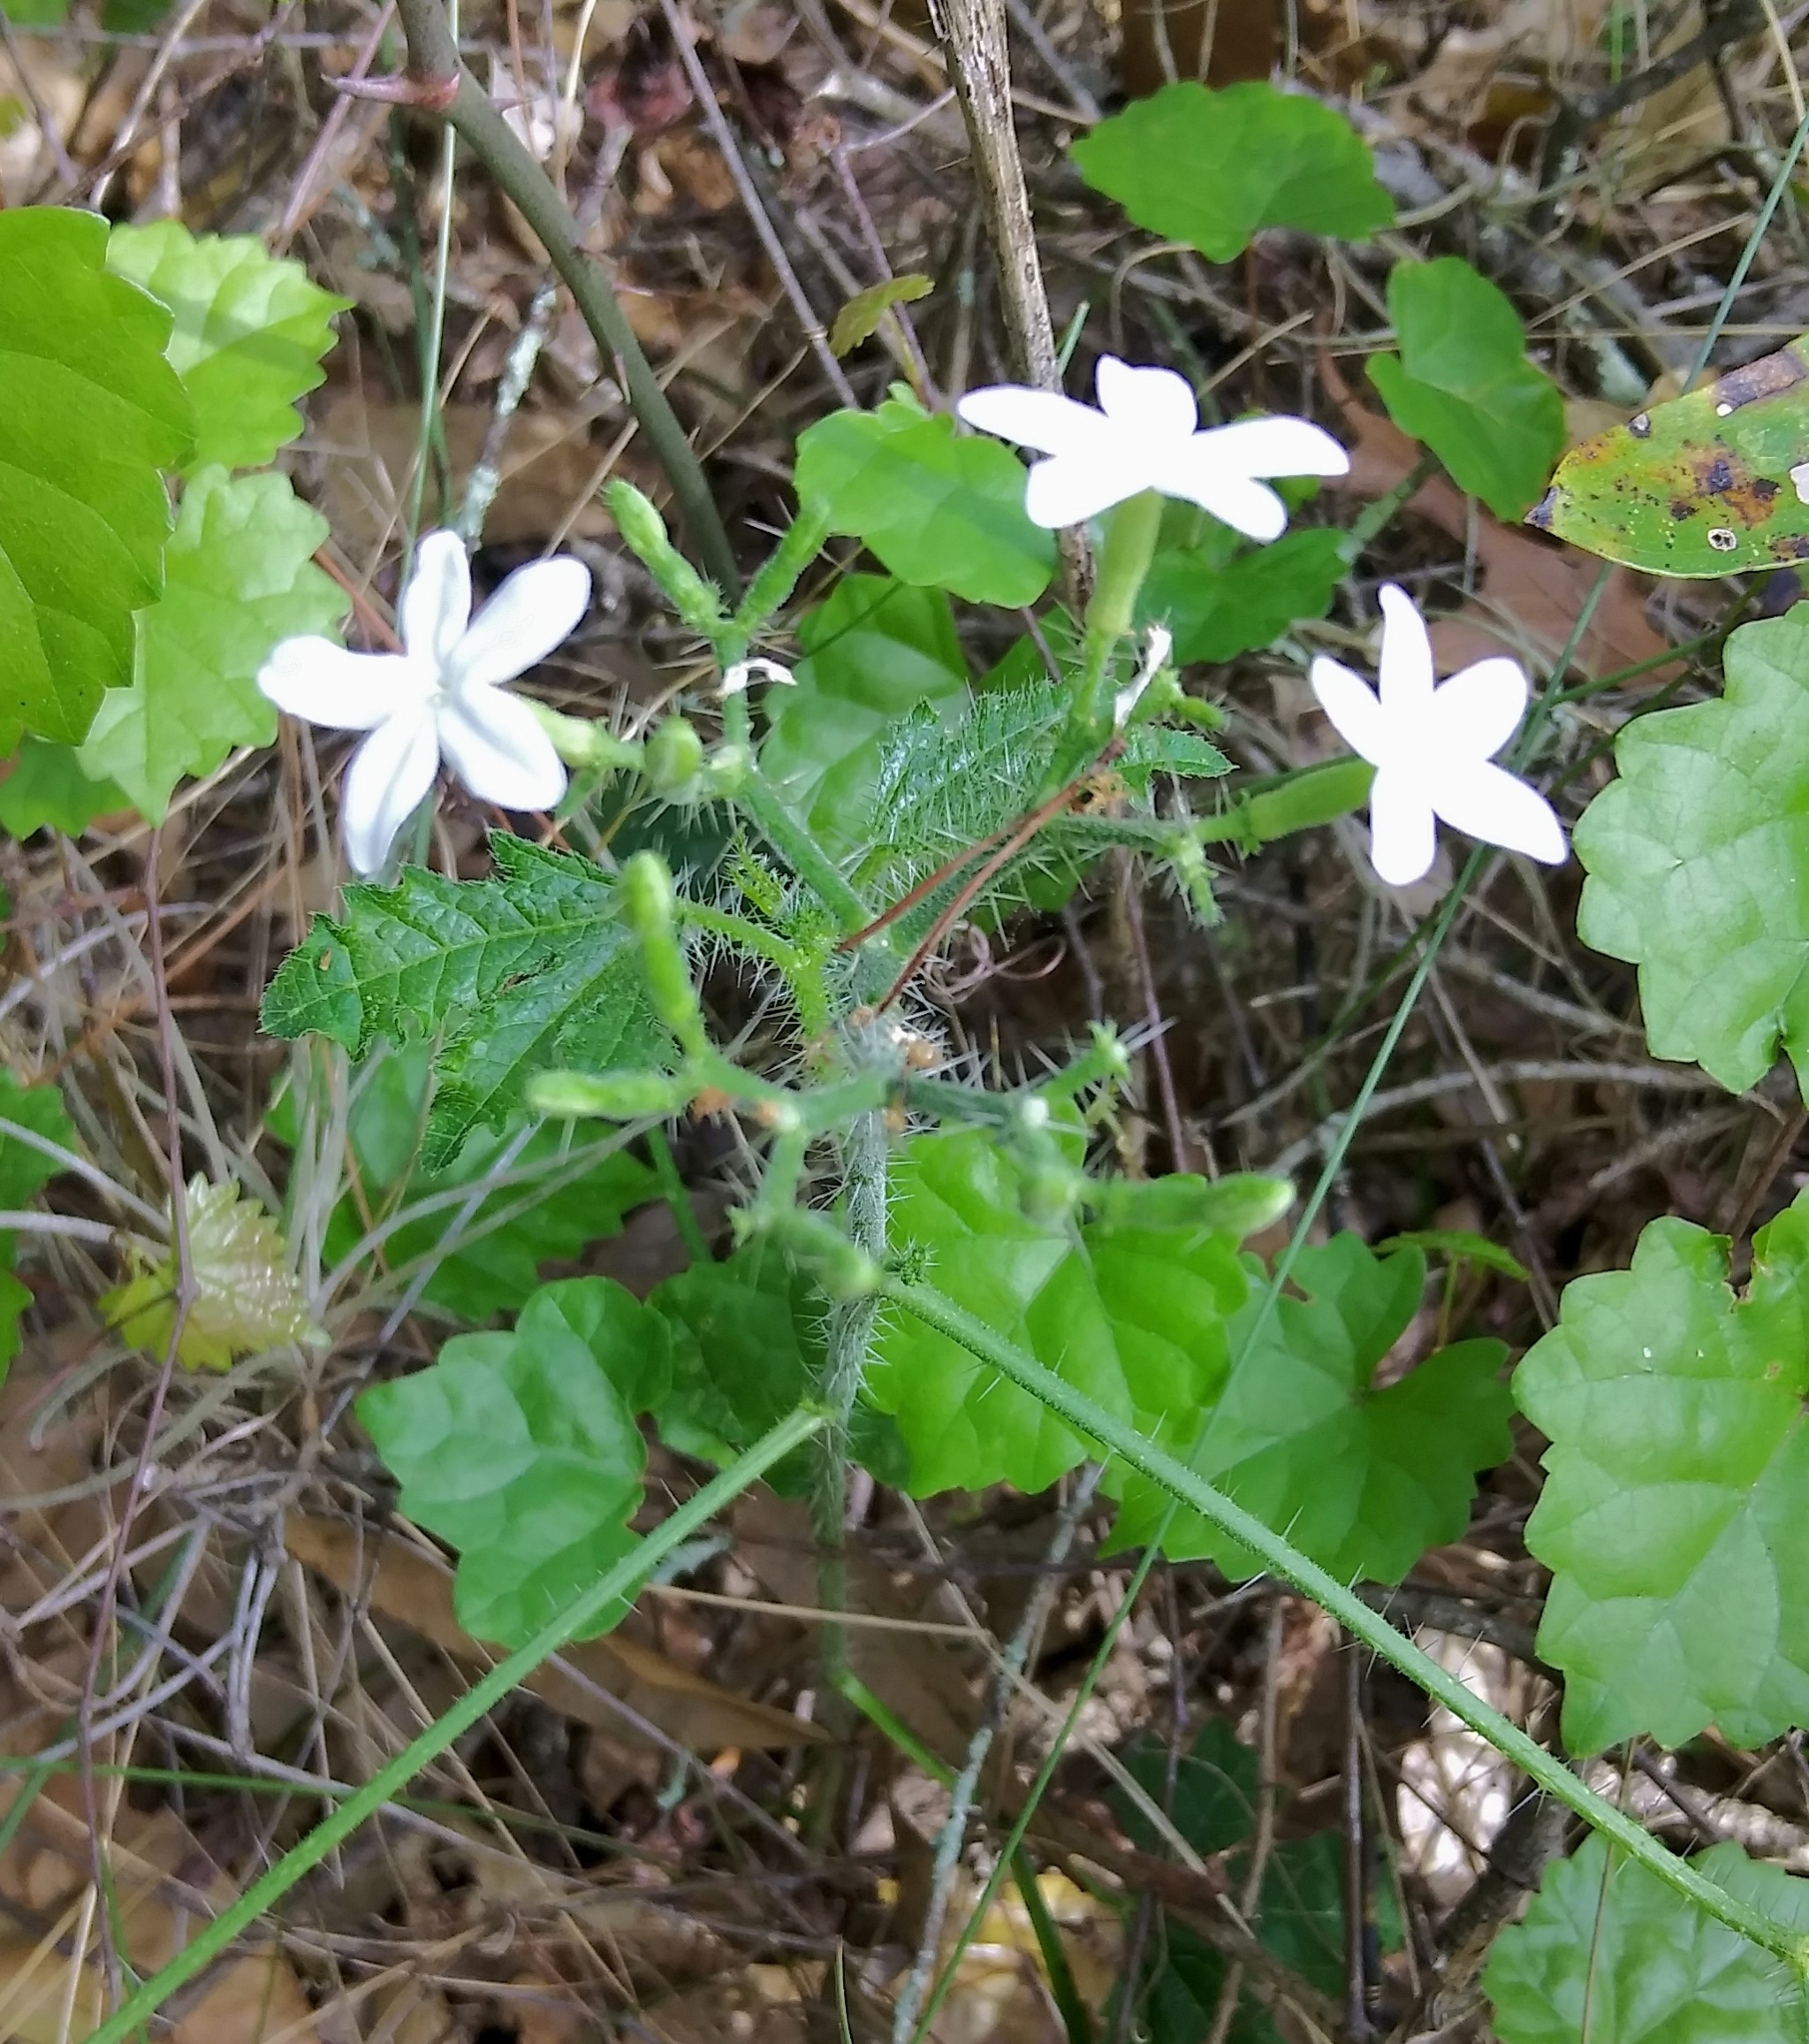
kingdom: Plantae
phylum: Tracheophyta
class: Magnoliopsida
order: Malpighiales
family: Euphorbiaceae
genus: Cnidoscolus
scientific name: Cnidoscolus stimulosus
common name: Bull-nettle
